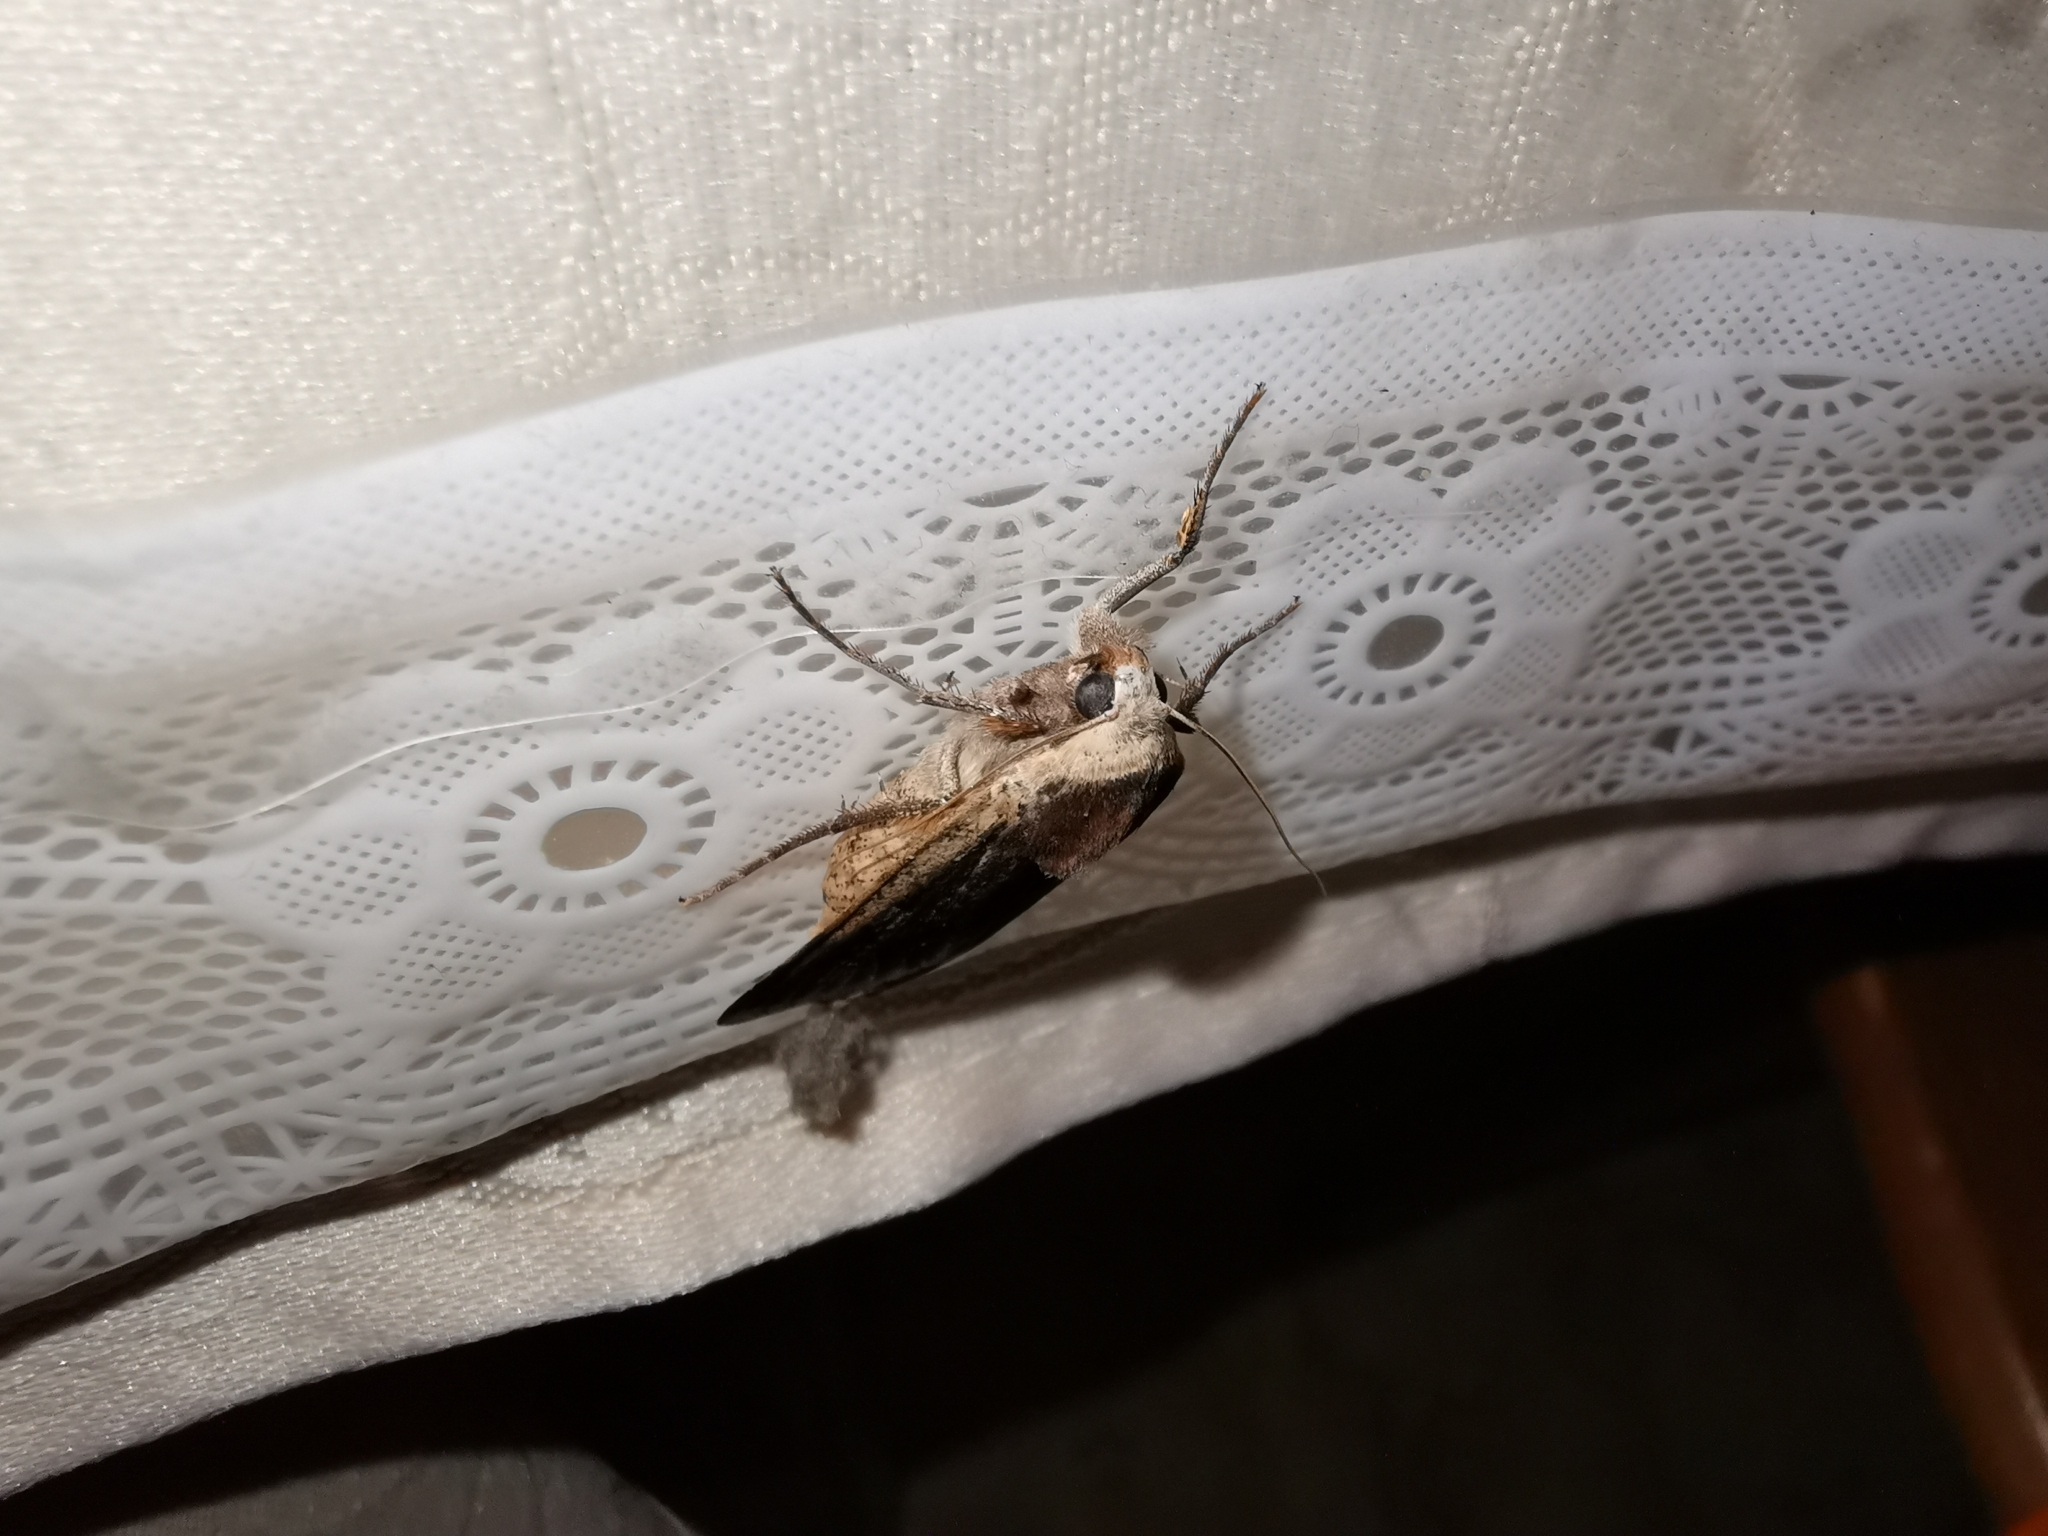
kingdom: Animalia
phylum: Arthropoda
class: Insecta
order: Lepidoptera
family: Noctuidae
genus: Noctua
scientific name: Noctua pronuba
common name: Large yellow underwing
